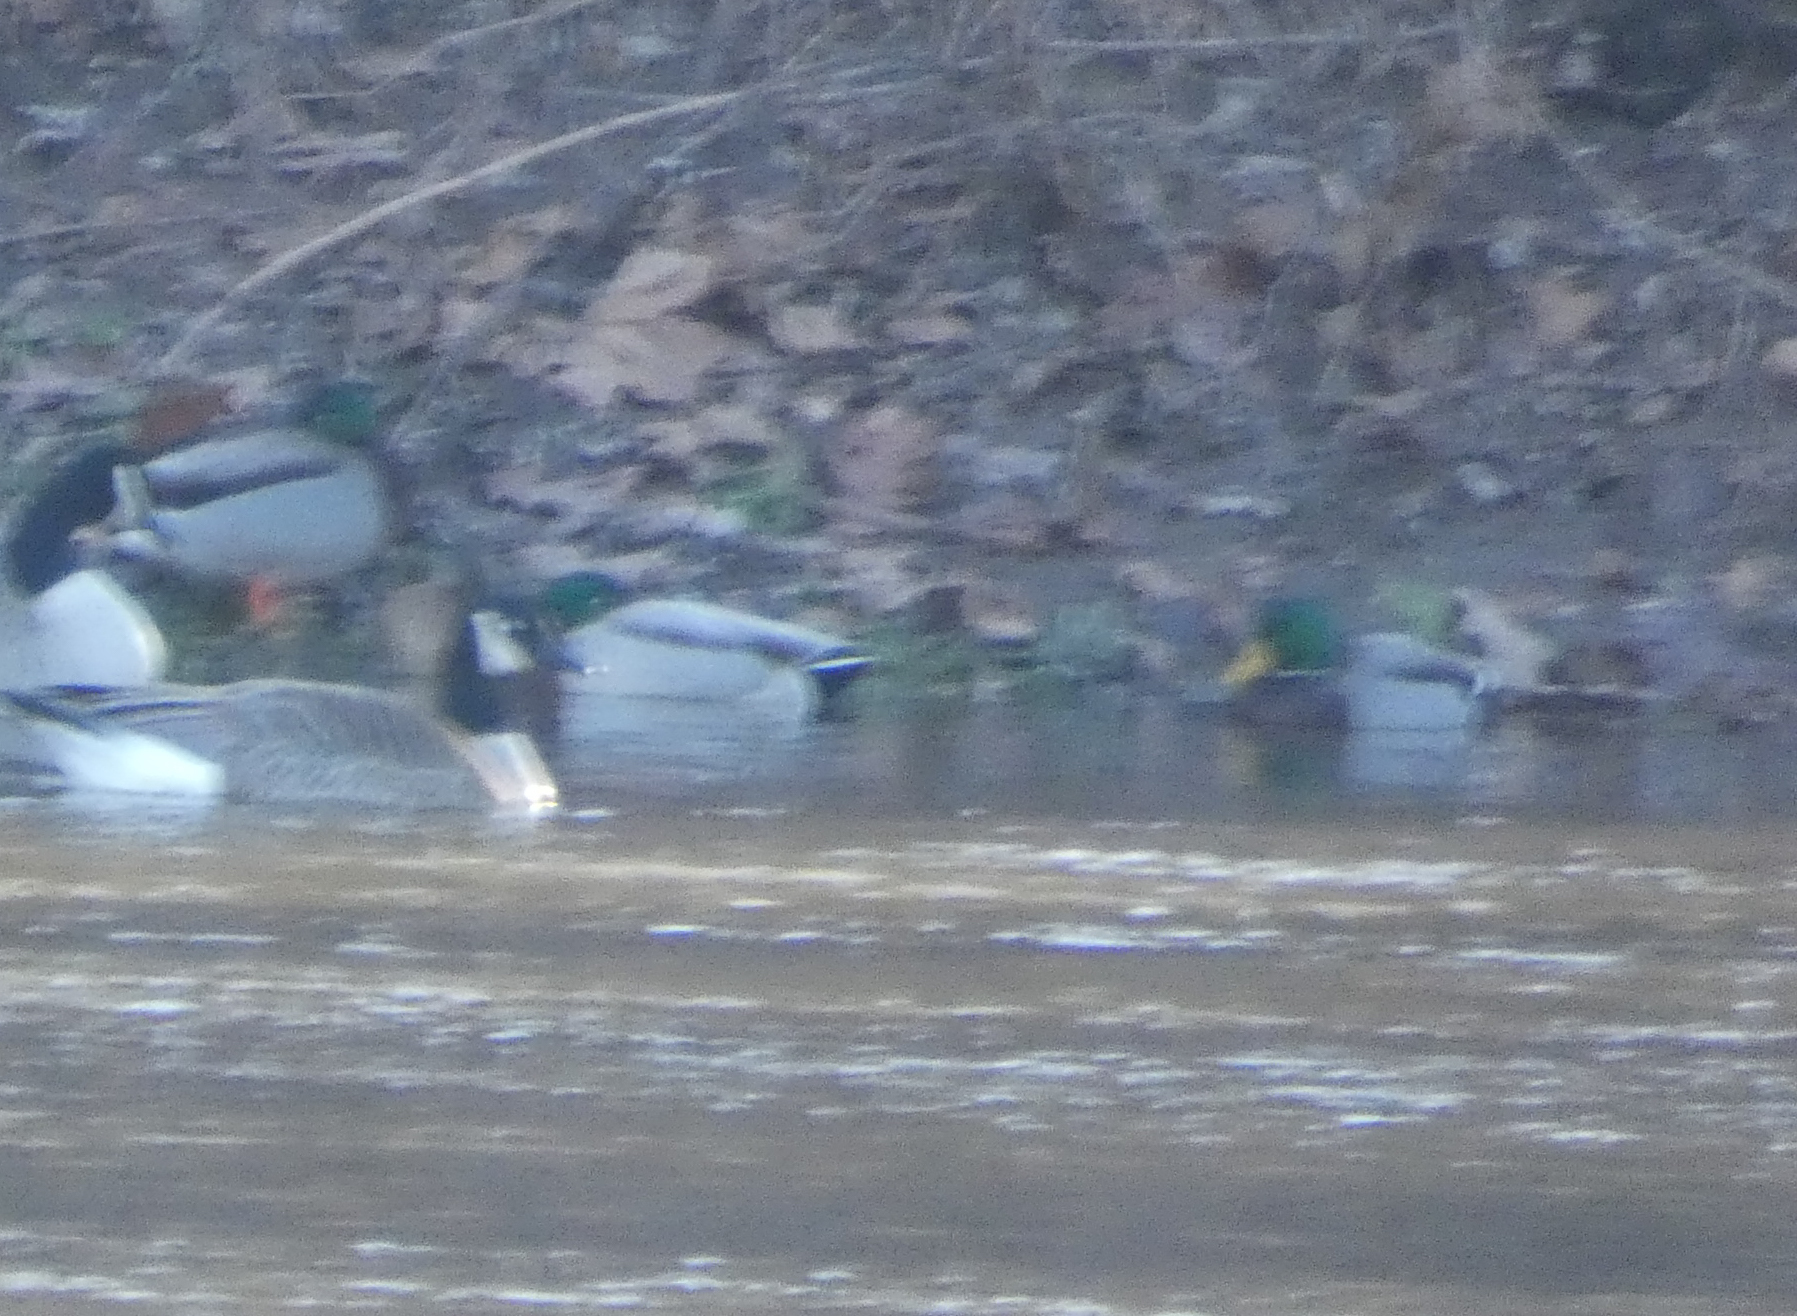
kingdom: Animalia
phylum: Chordata
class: Aves
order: Anseriformes
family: Anatidae
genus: Anas
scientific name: Anas platyrhynchos
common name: Mallard
